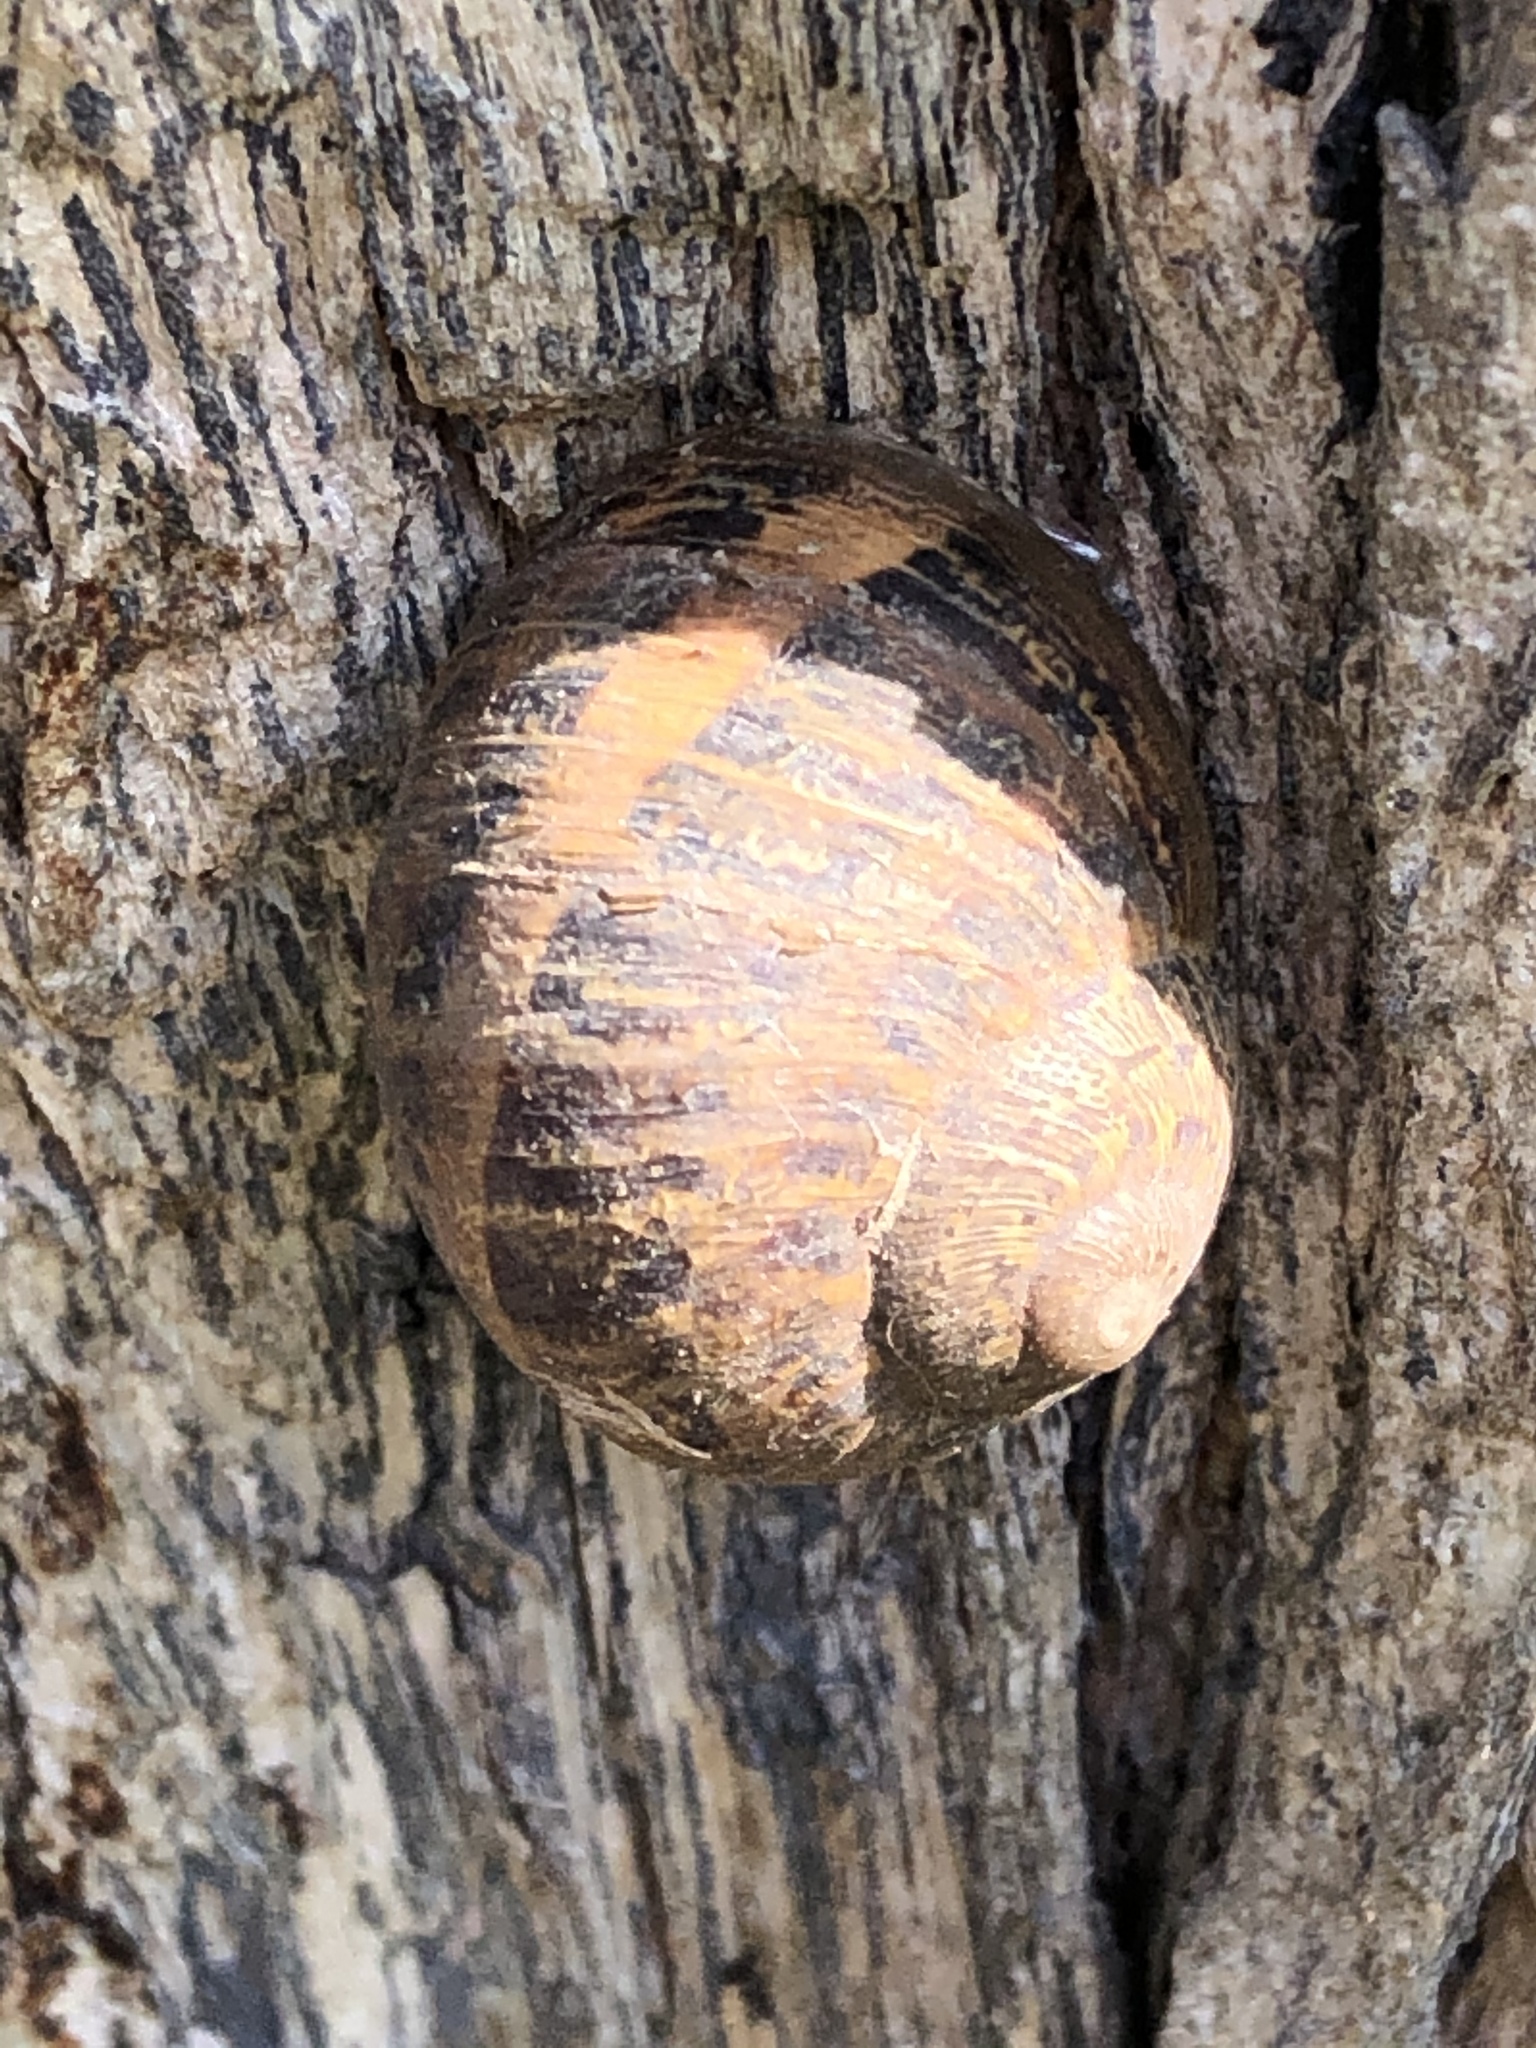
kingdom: Animalia
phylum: Mollusca
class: Gastropoda
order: Stylommatophora
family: Helicidae
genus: Cornu
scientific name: Cornu aspersum
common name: Brown garden snail
